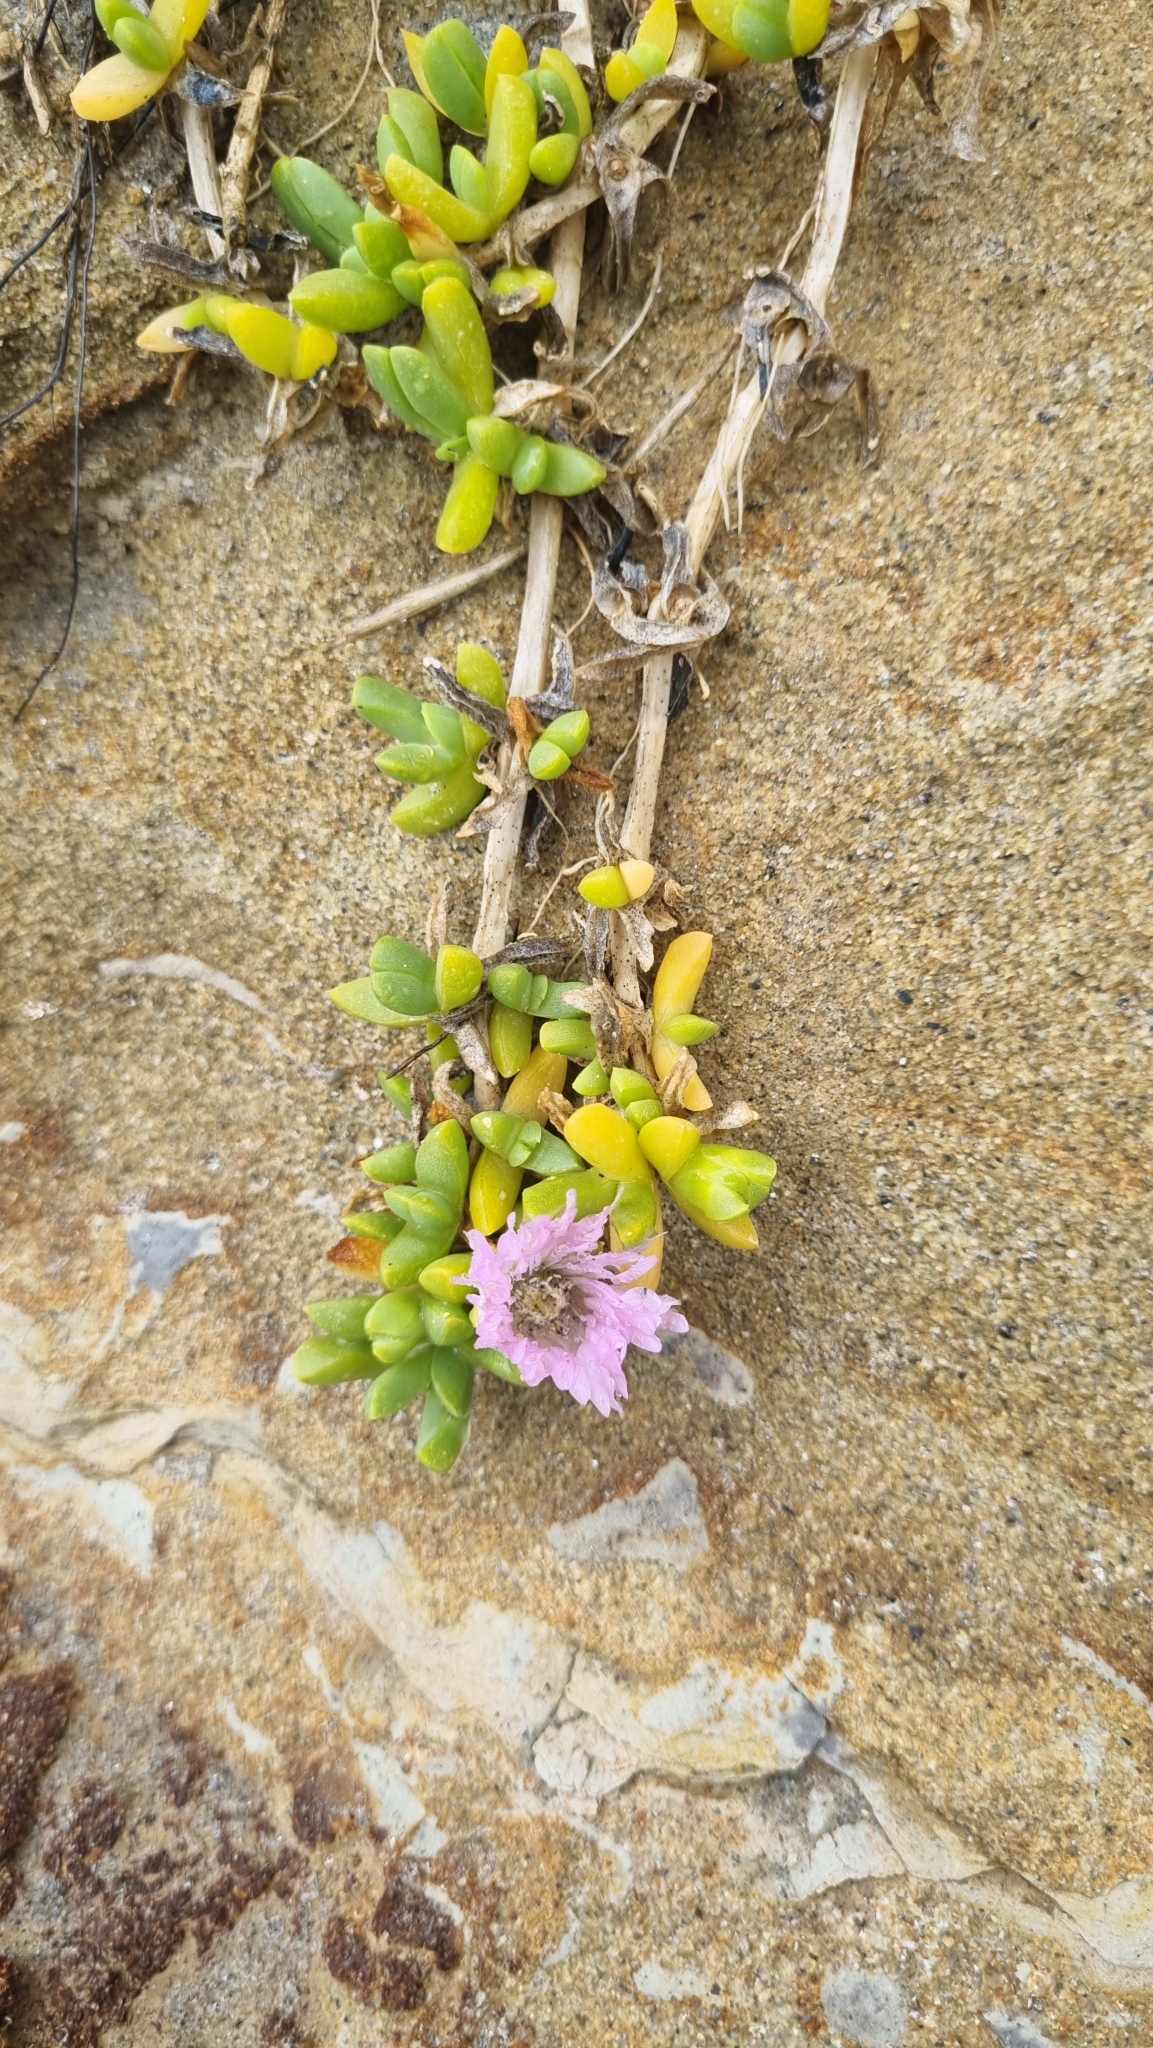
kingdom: Plantae
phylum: Tracheophyta
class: Magnoliopsida
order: Caryophyllales
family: Aizoaceae
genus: Disphyma
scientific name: Disphyma australe
